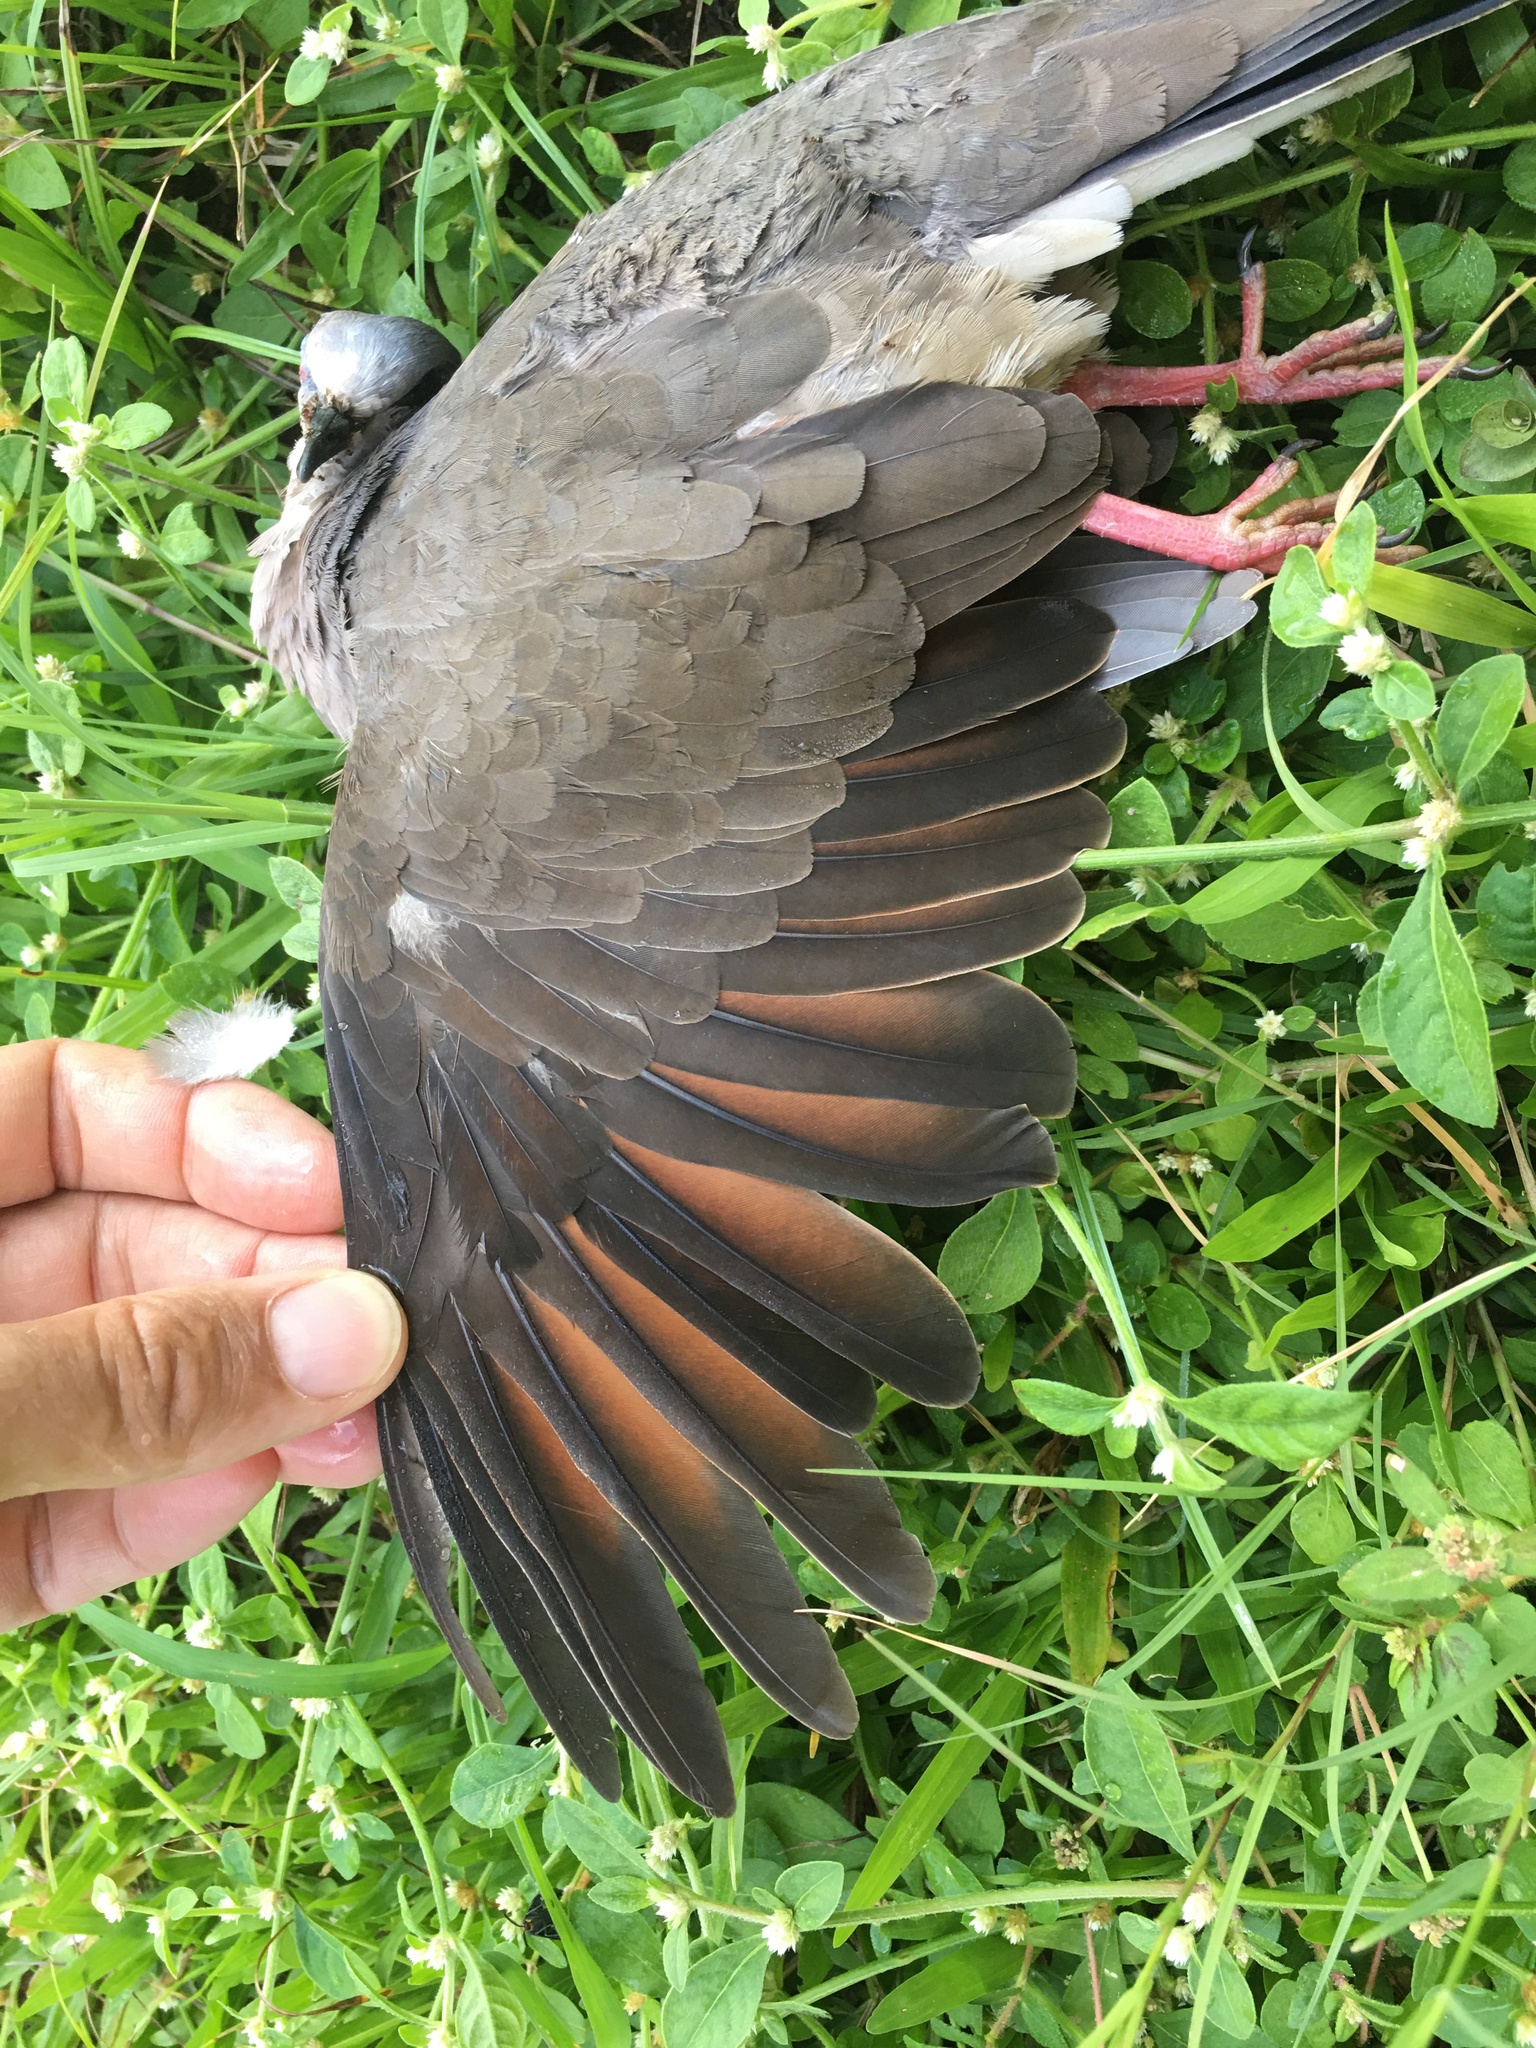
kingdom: Animalia
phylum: Chordata
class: Aves
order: Columbiformes
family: Columbidae
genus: Leptotila
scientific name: Leptotila verreauxi
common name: White-tipped dove
